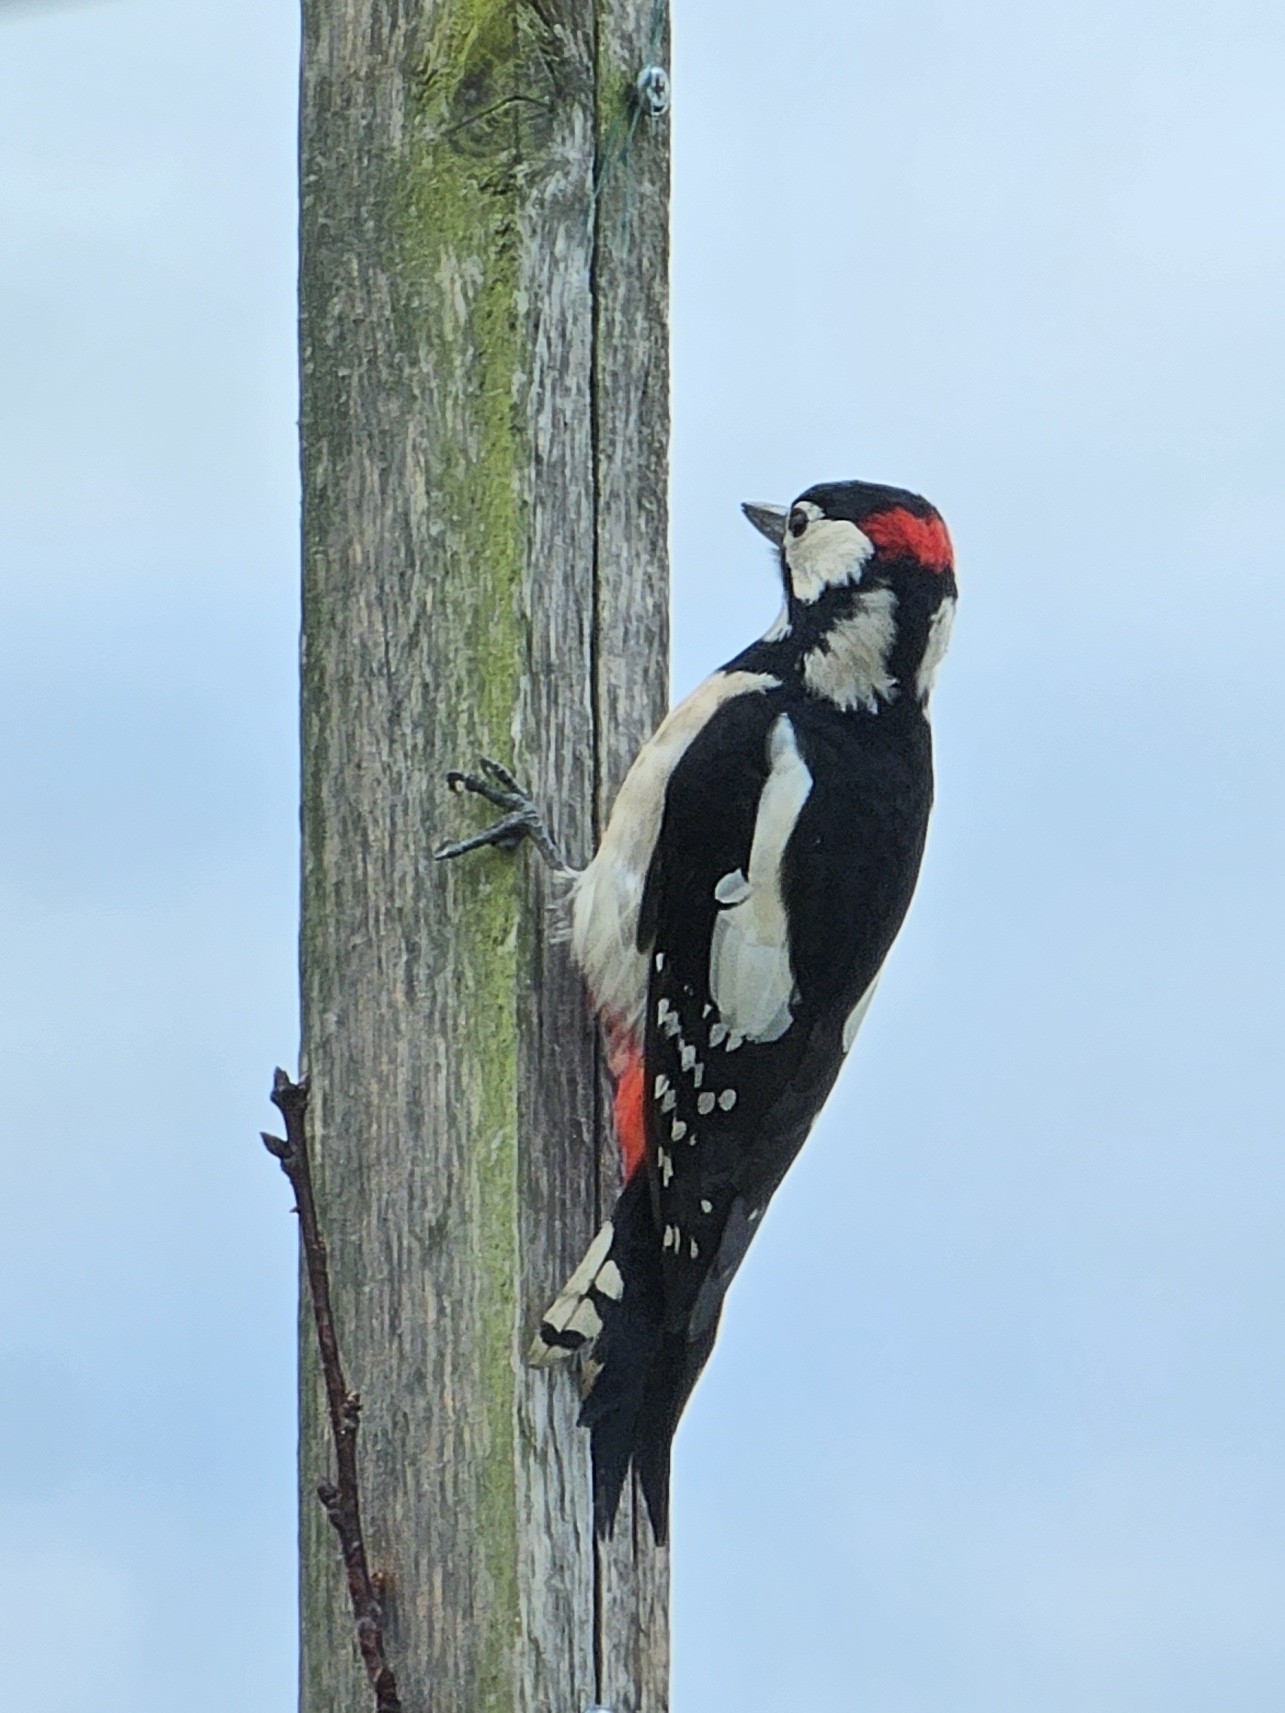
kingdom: Animalia
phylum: Chordata
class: Aves
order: Piciformes
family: Picidae
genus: Dendrocopos
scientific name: Dendrocopos major
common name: Great spotted woodpecker
